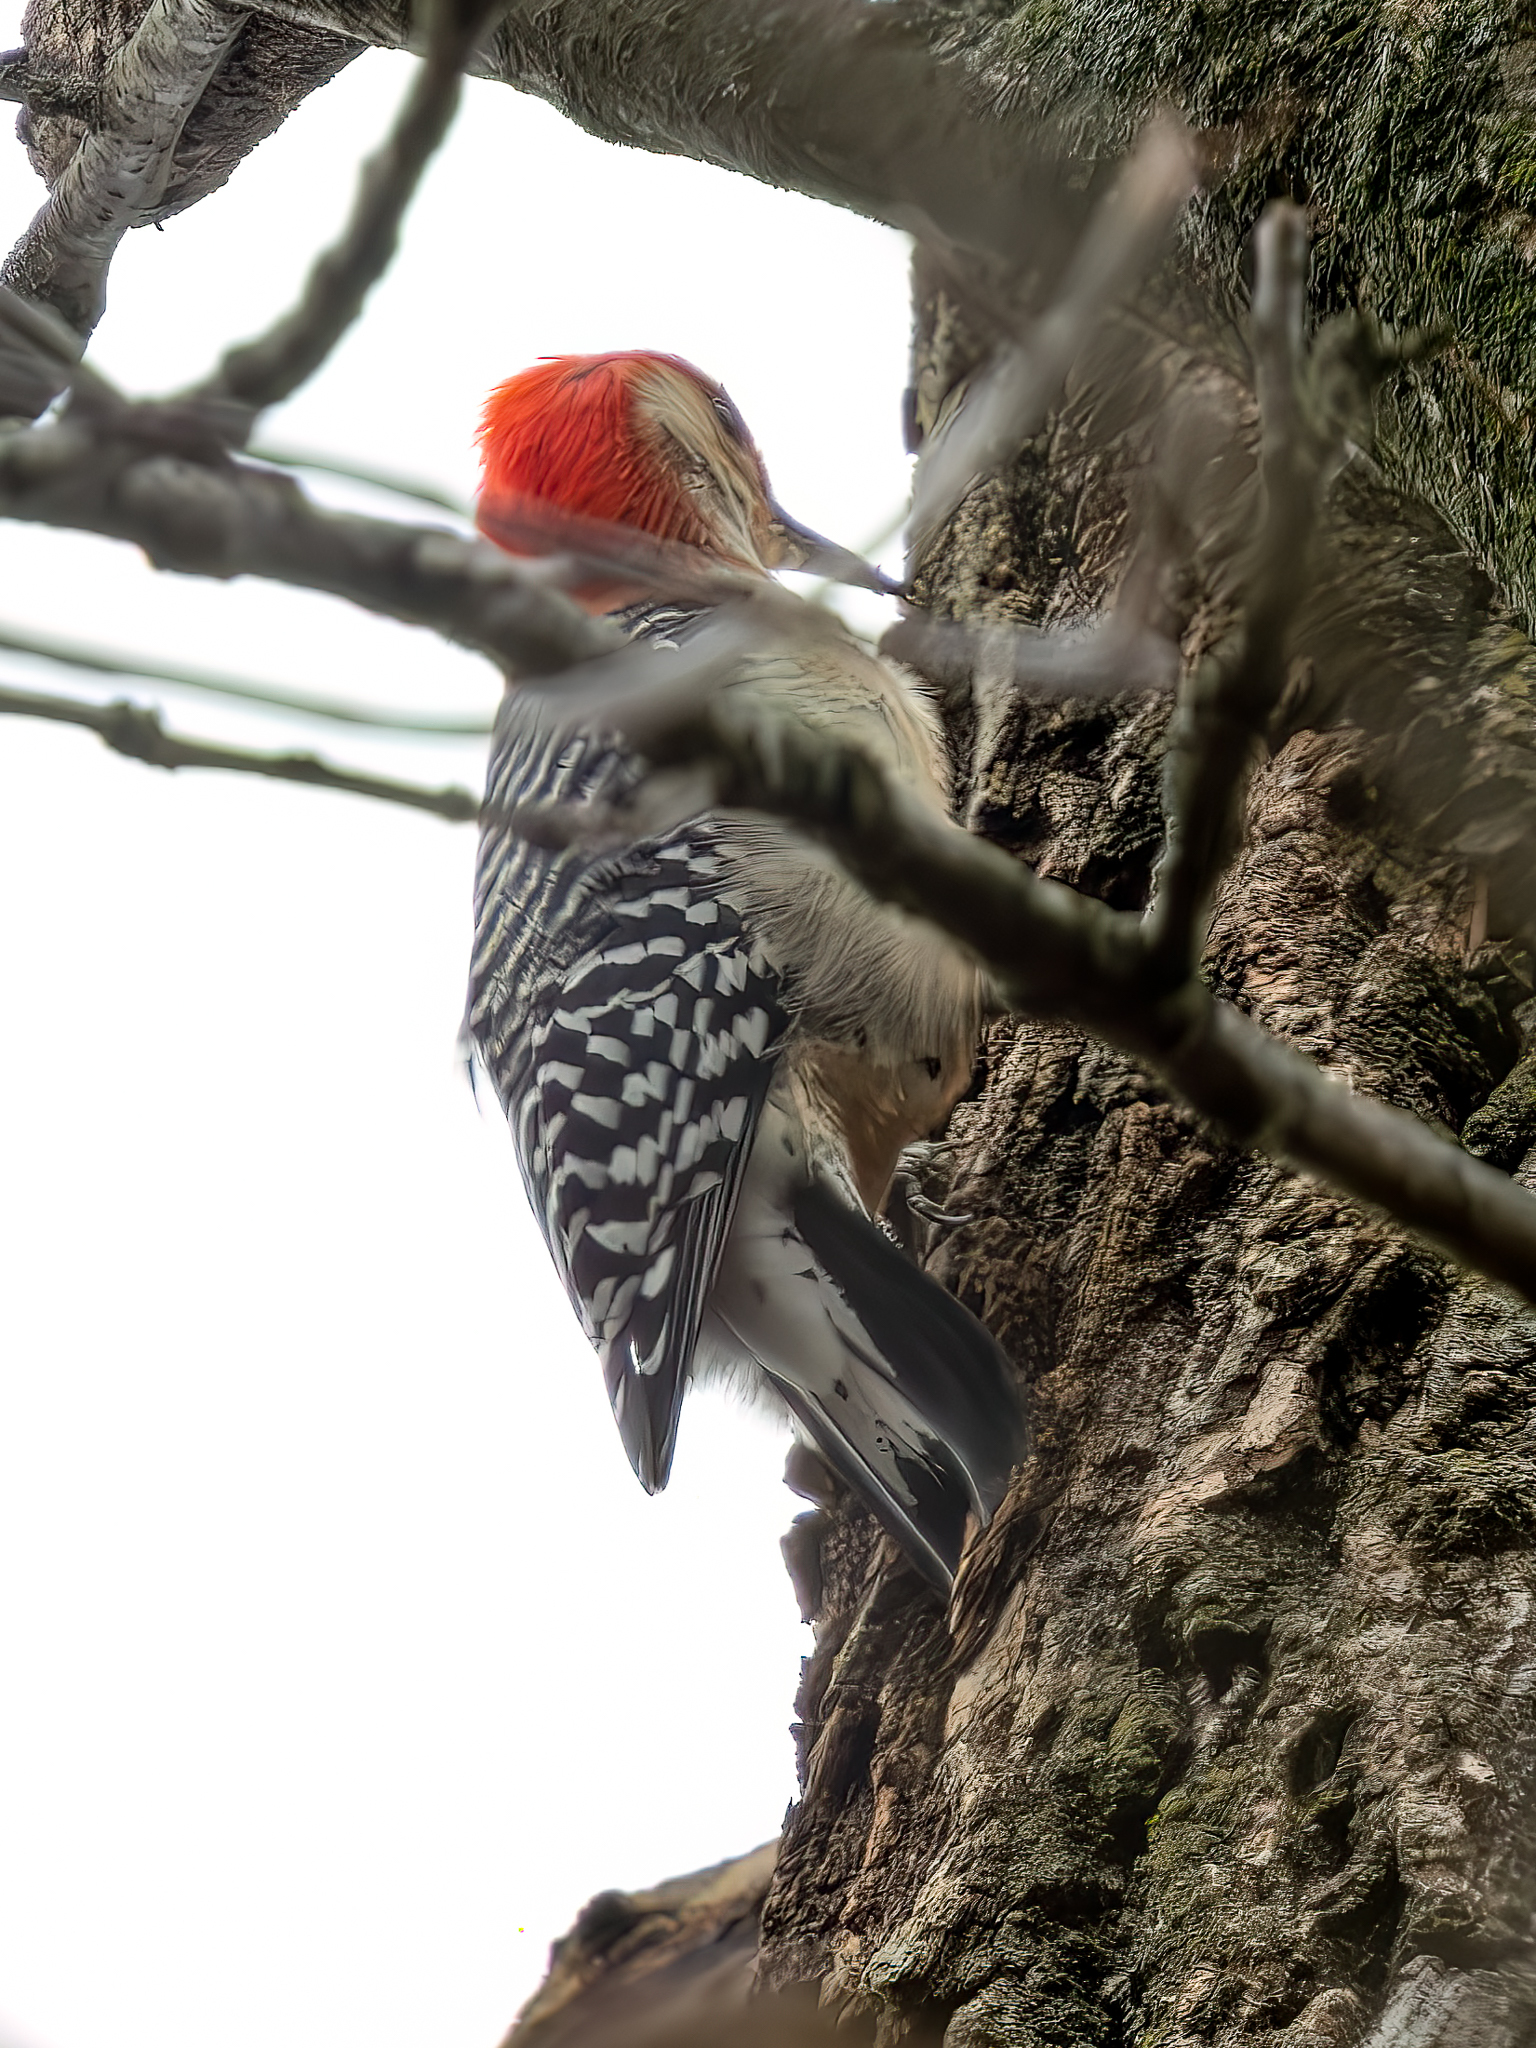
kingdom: Animalia
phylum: Chordata
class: Aves
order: Piciformes
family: Picidae
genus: Melanerpes
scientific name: Melanerpes carolinus
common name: Red-bellied woodpecker
